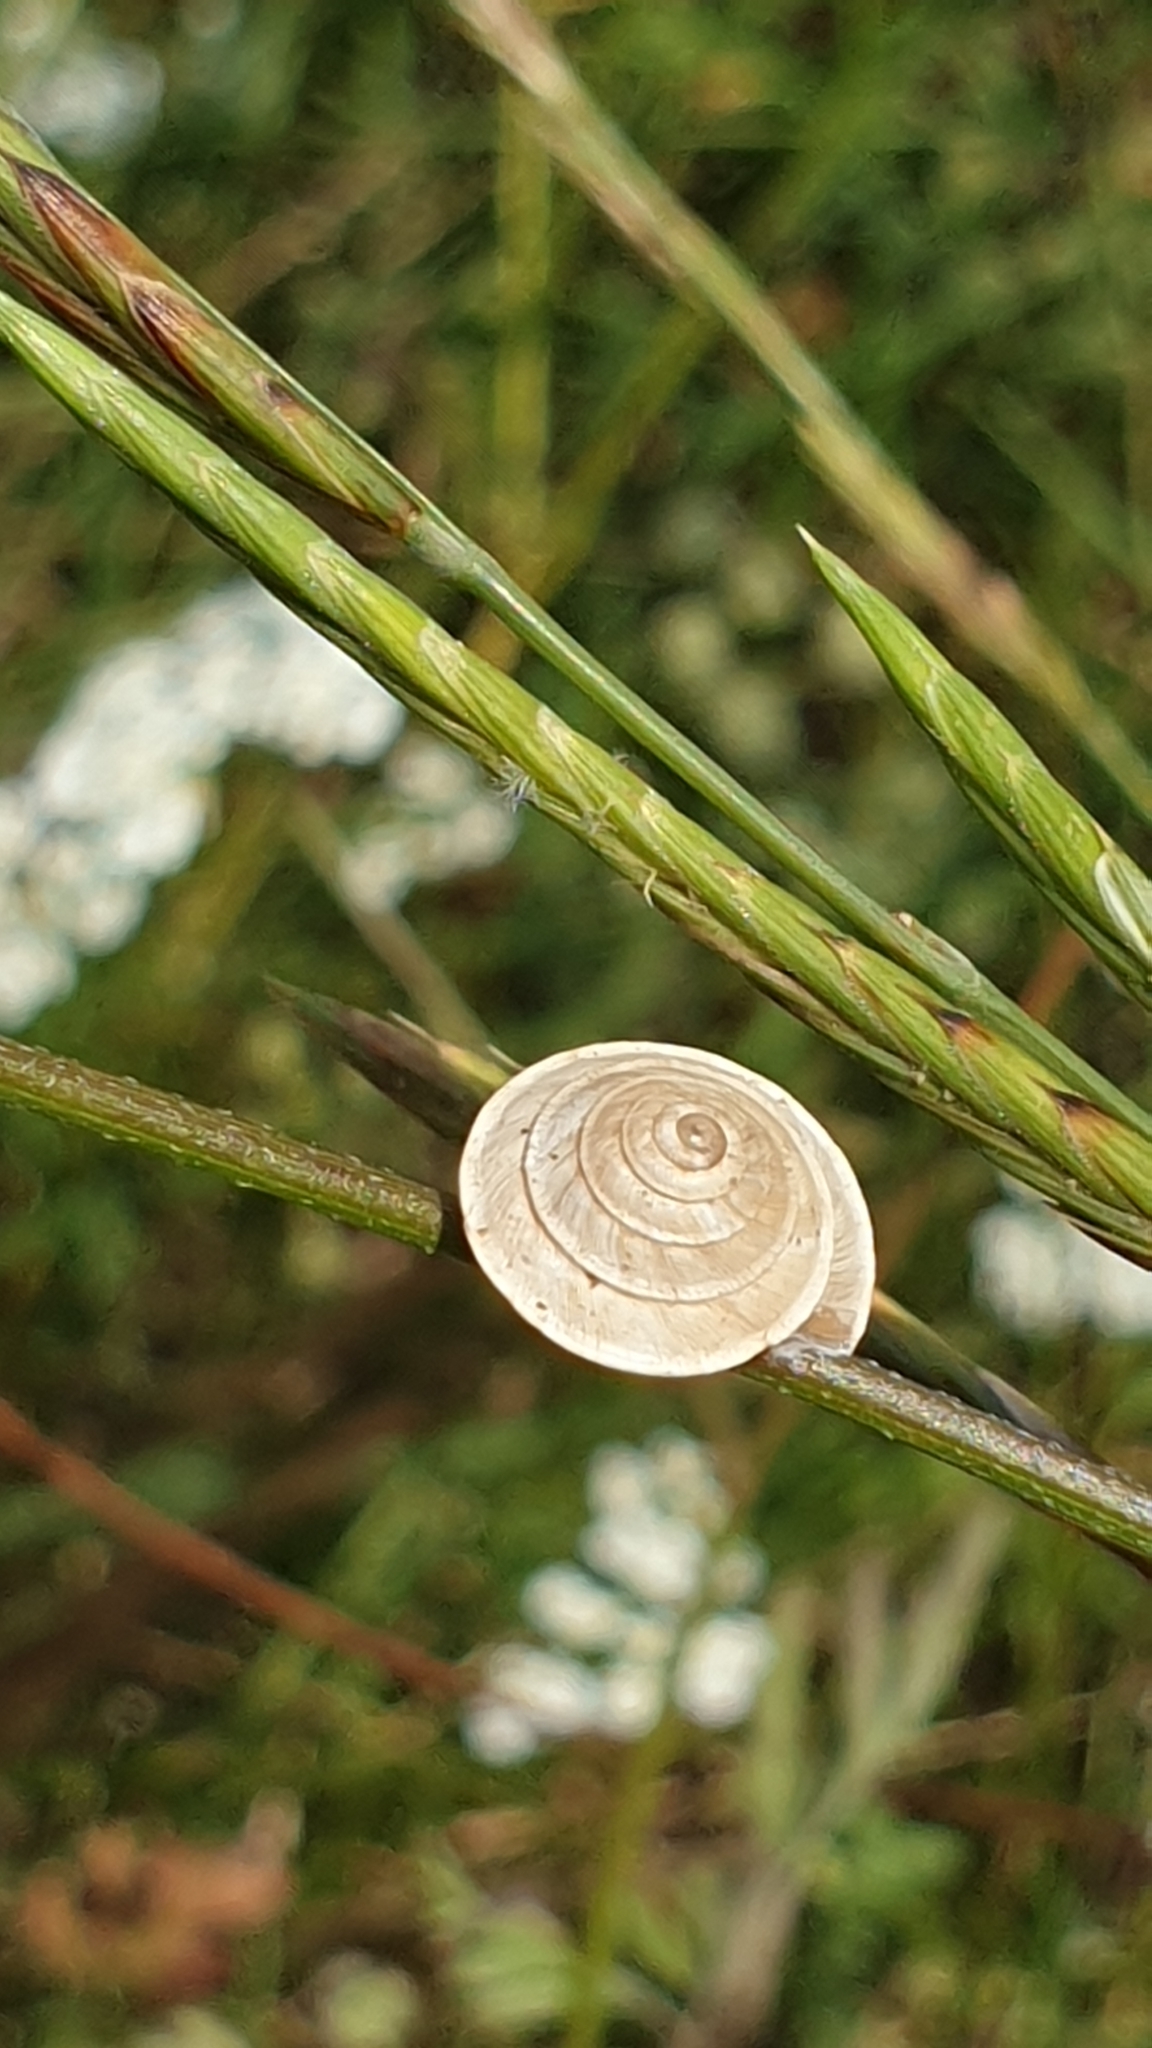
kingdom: Animalia
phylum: Mollusca
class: Gastropoda
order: Stylommatophora
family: Geomitridae
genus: Trochoidea
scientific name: Trochoidea elegans
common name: Elegant helicellid
